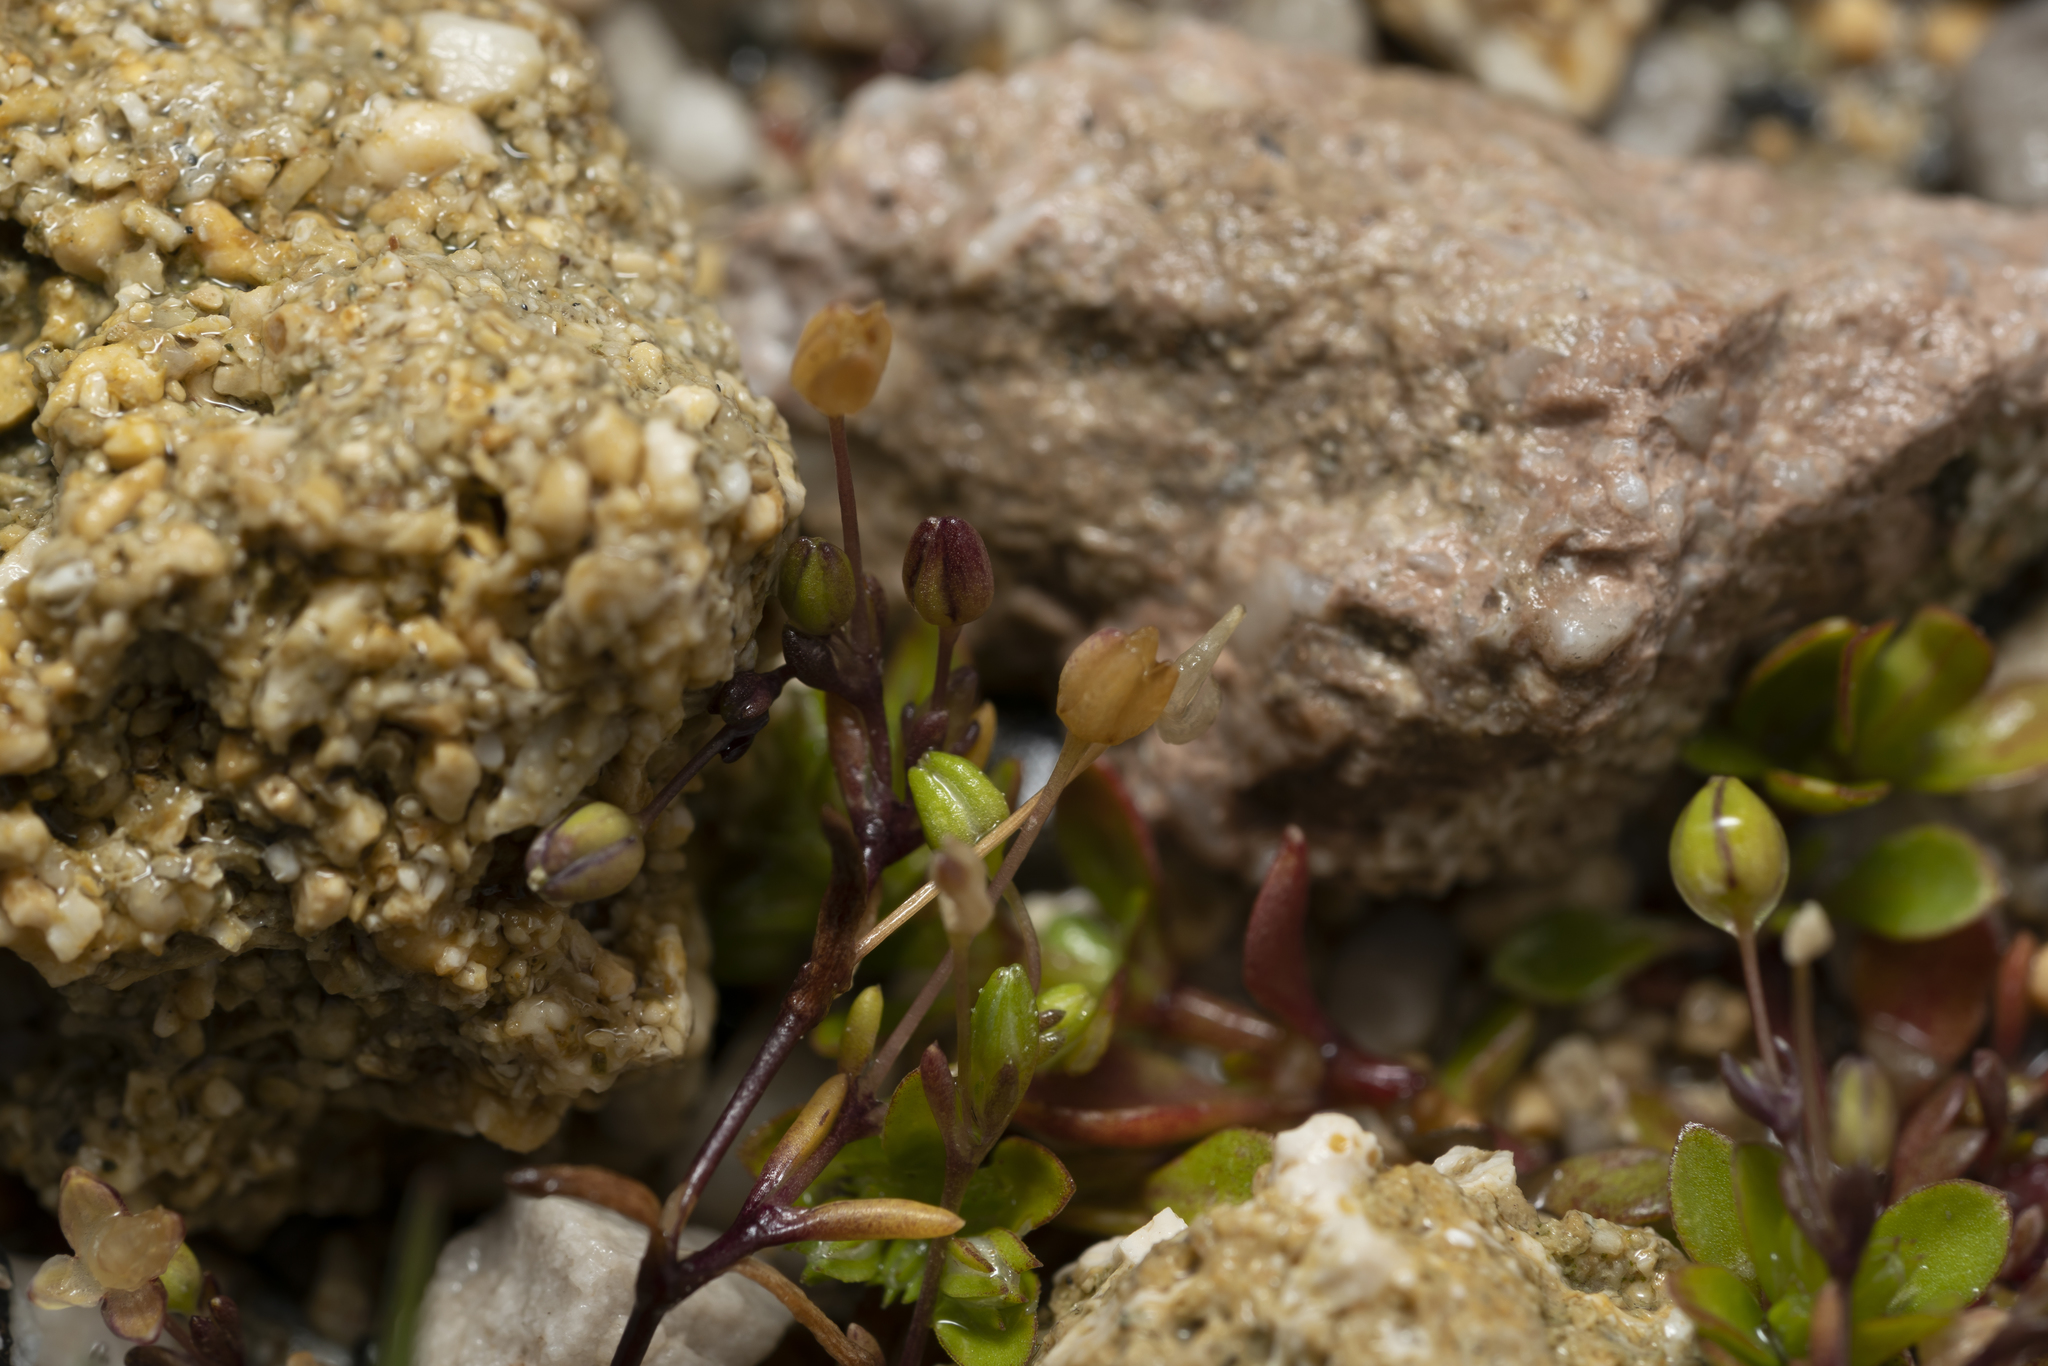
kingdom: Plantae
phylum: Tracheophyta
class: Magnoliopsida
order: Caryophyllales
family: Caryophyllaceae
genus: Polycarpon
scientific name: Polycarpon tetraphyllum
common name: Four-leaved all-seed
